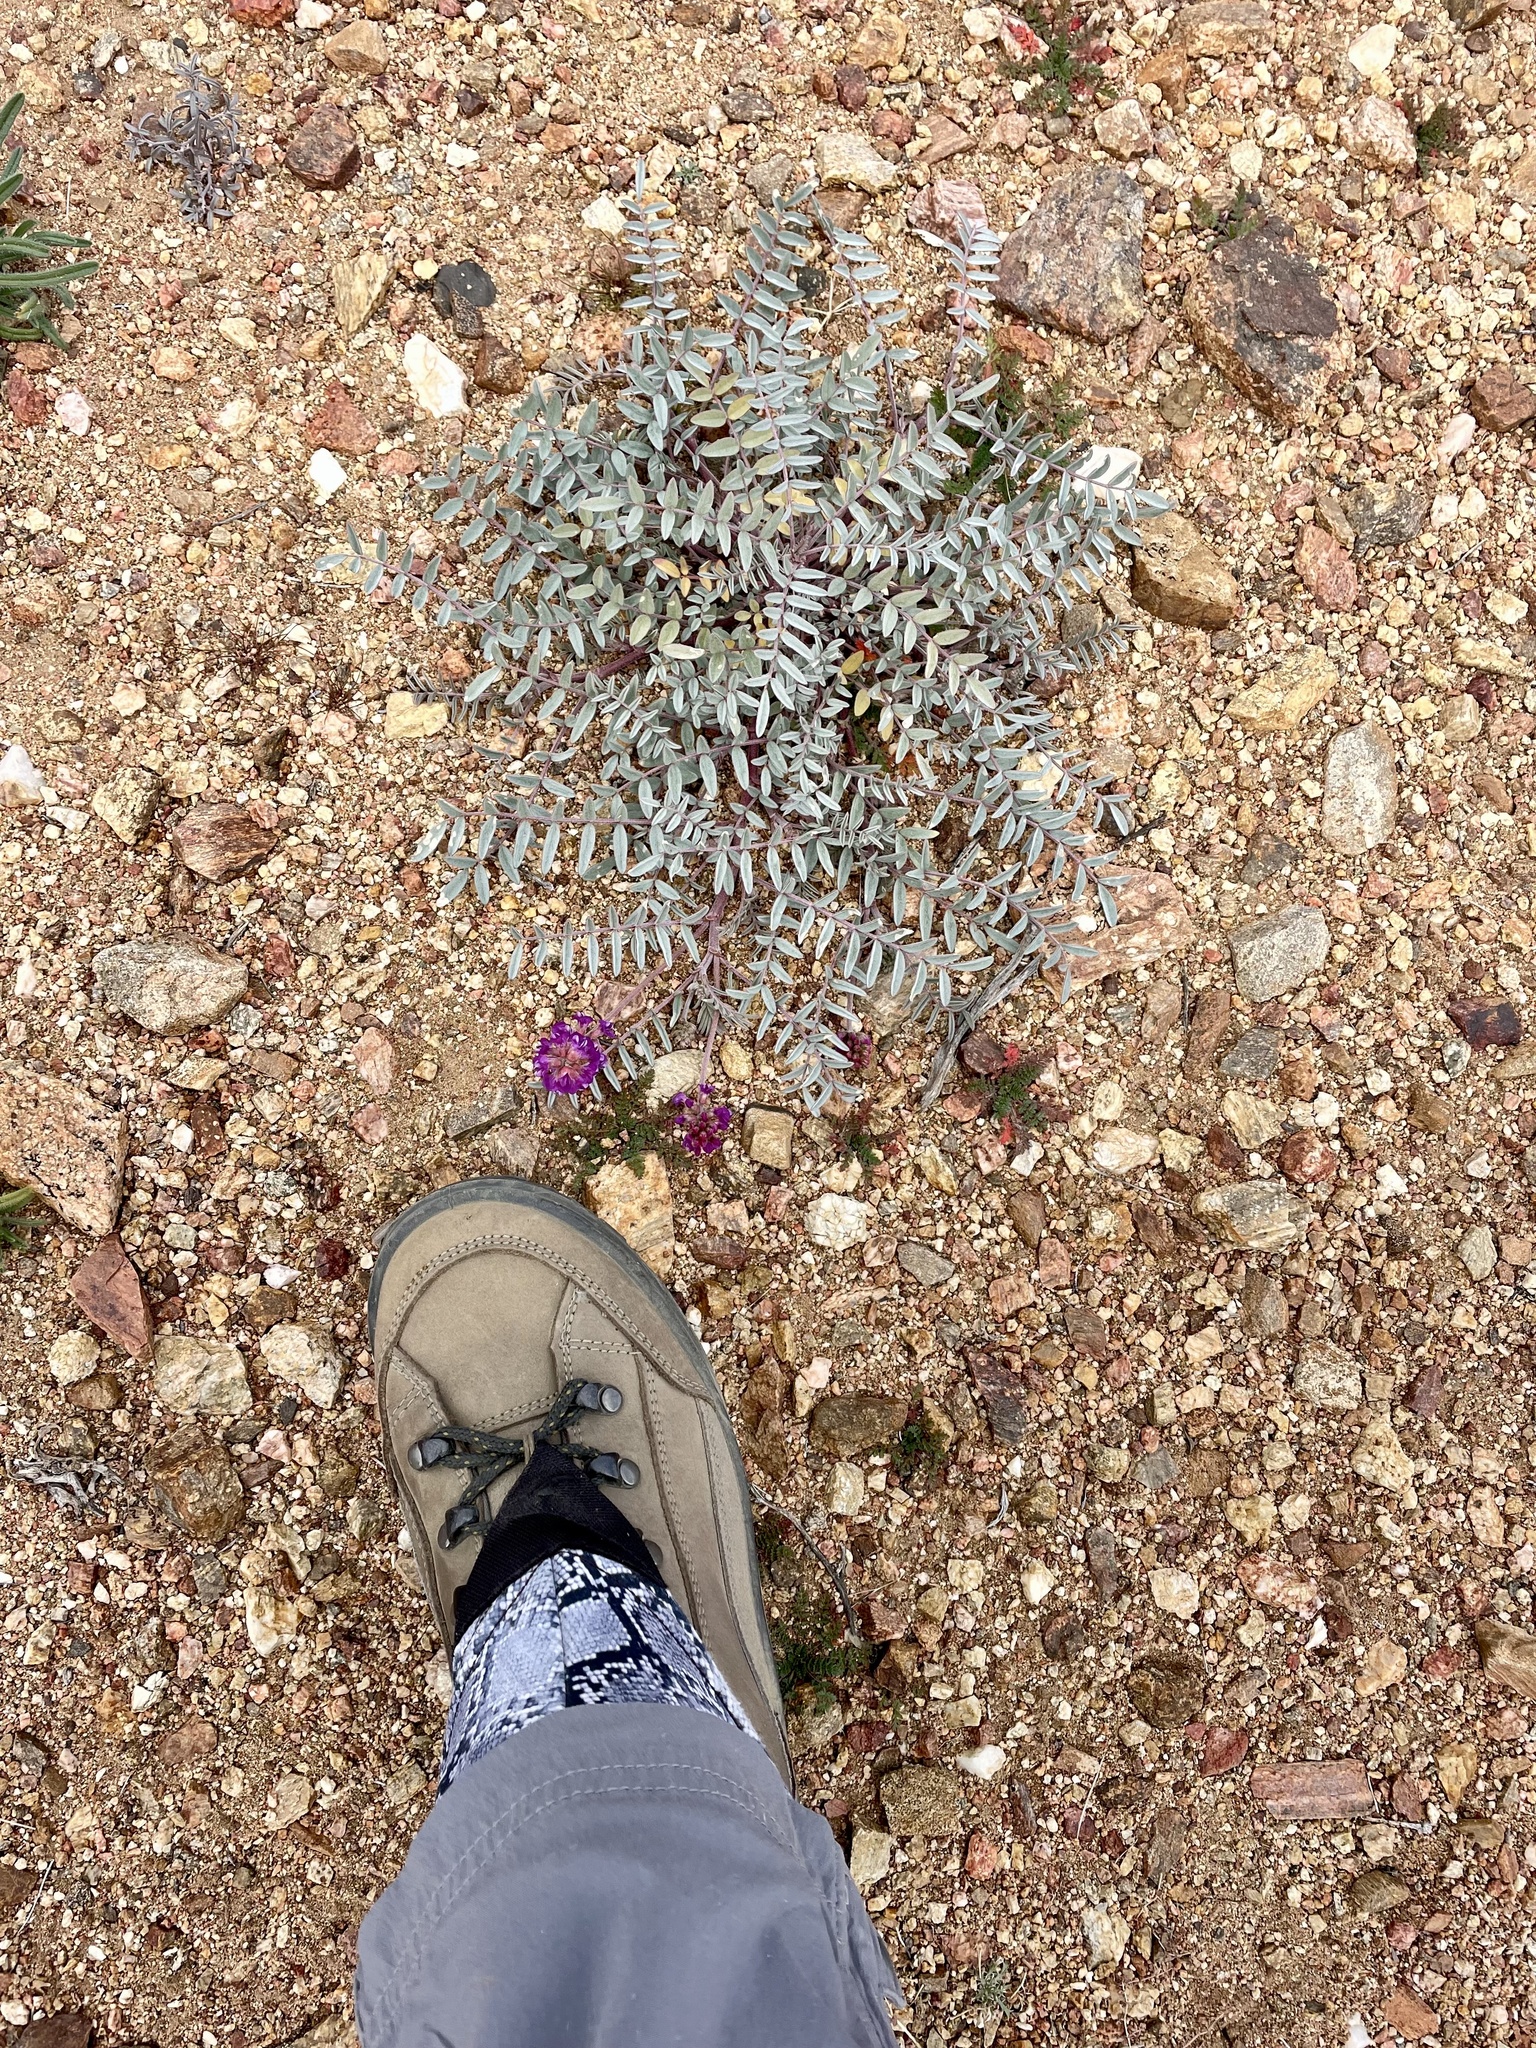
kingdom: Plantae
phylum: Tracheophyta
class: Magnoliopsida
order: Fabales
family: Fabaceae
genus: Astragalus
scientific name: Astragalus palmeri
